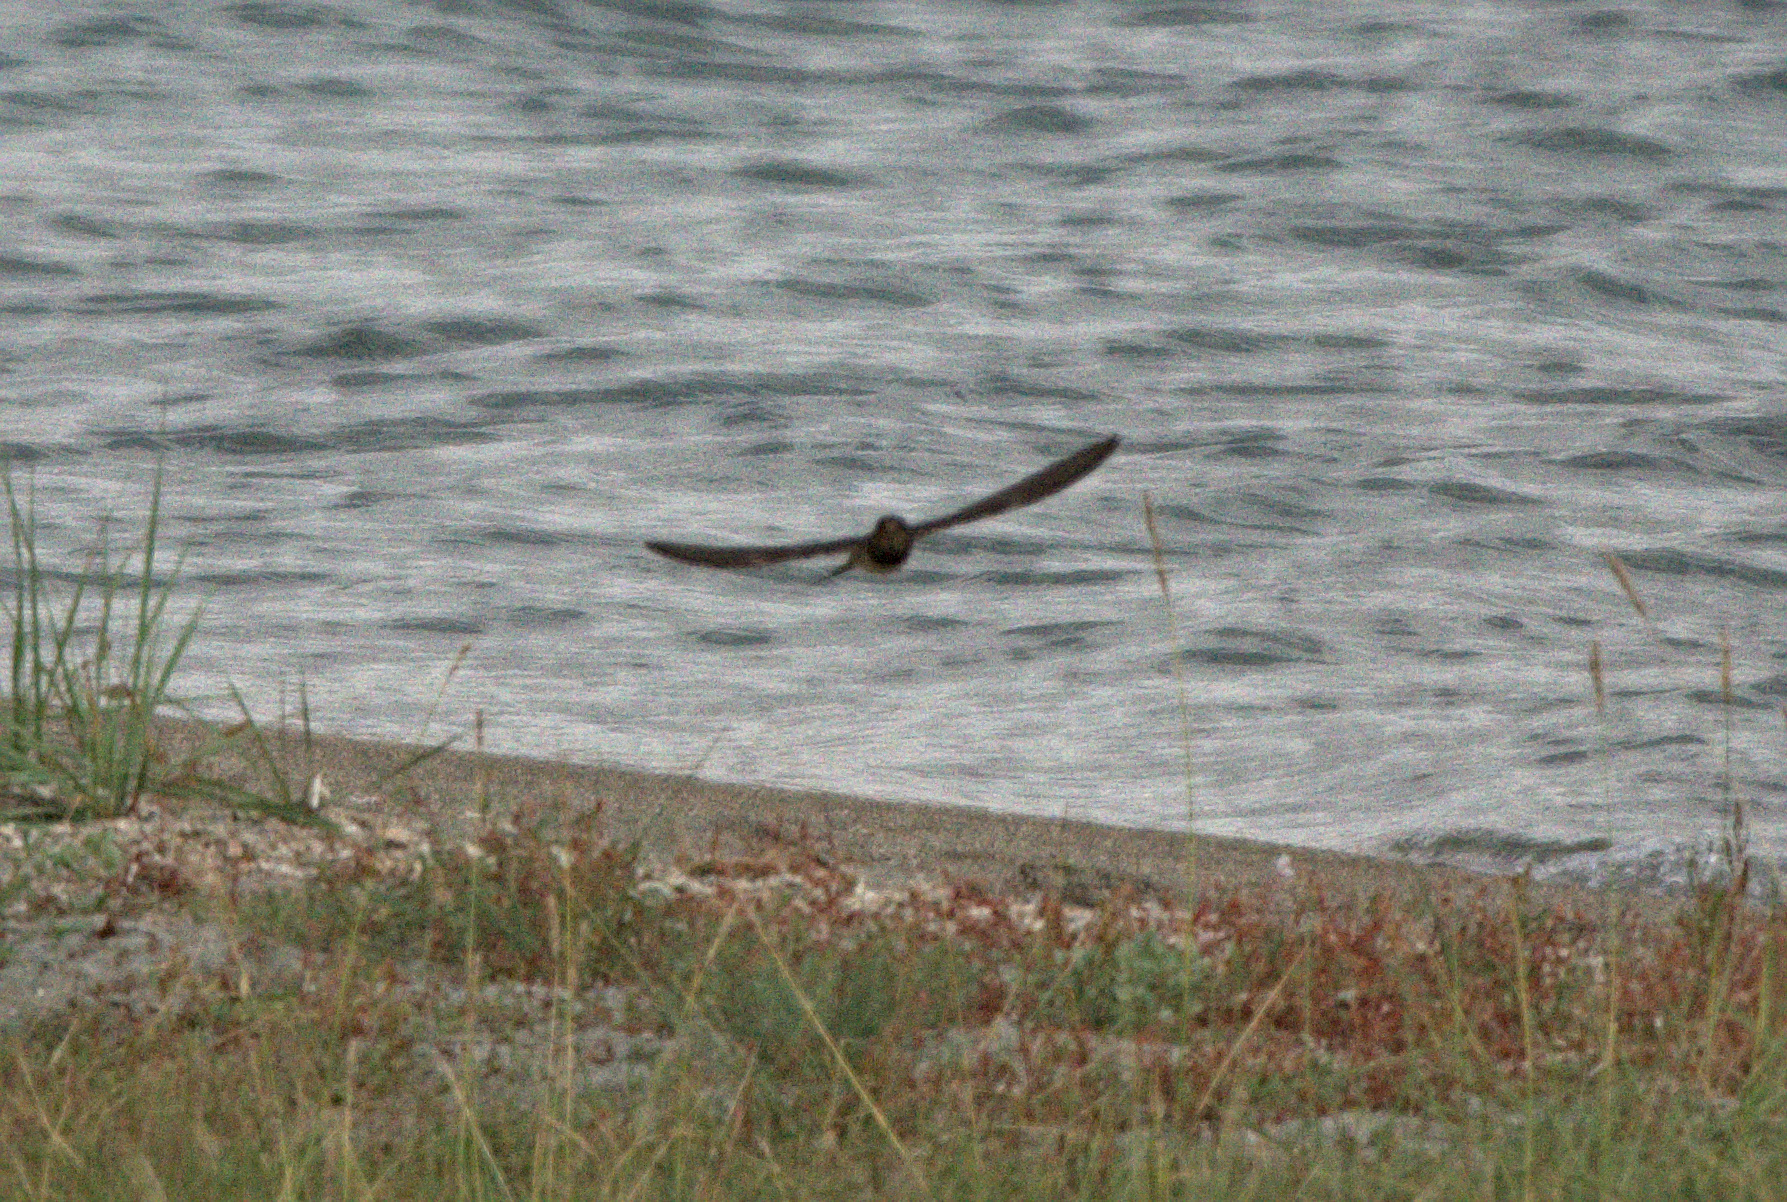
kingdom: Animalia
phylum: Chordata
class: Aves
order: Passeriformes
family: Hirundinidae
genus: Hirundo
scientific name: Hirundo rustica
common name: Barn swallow
